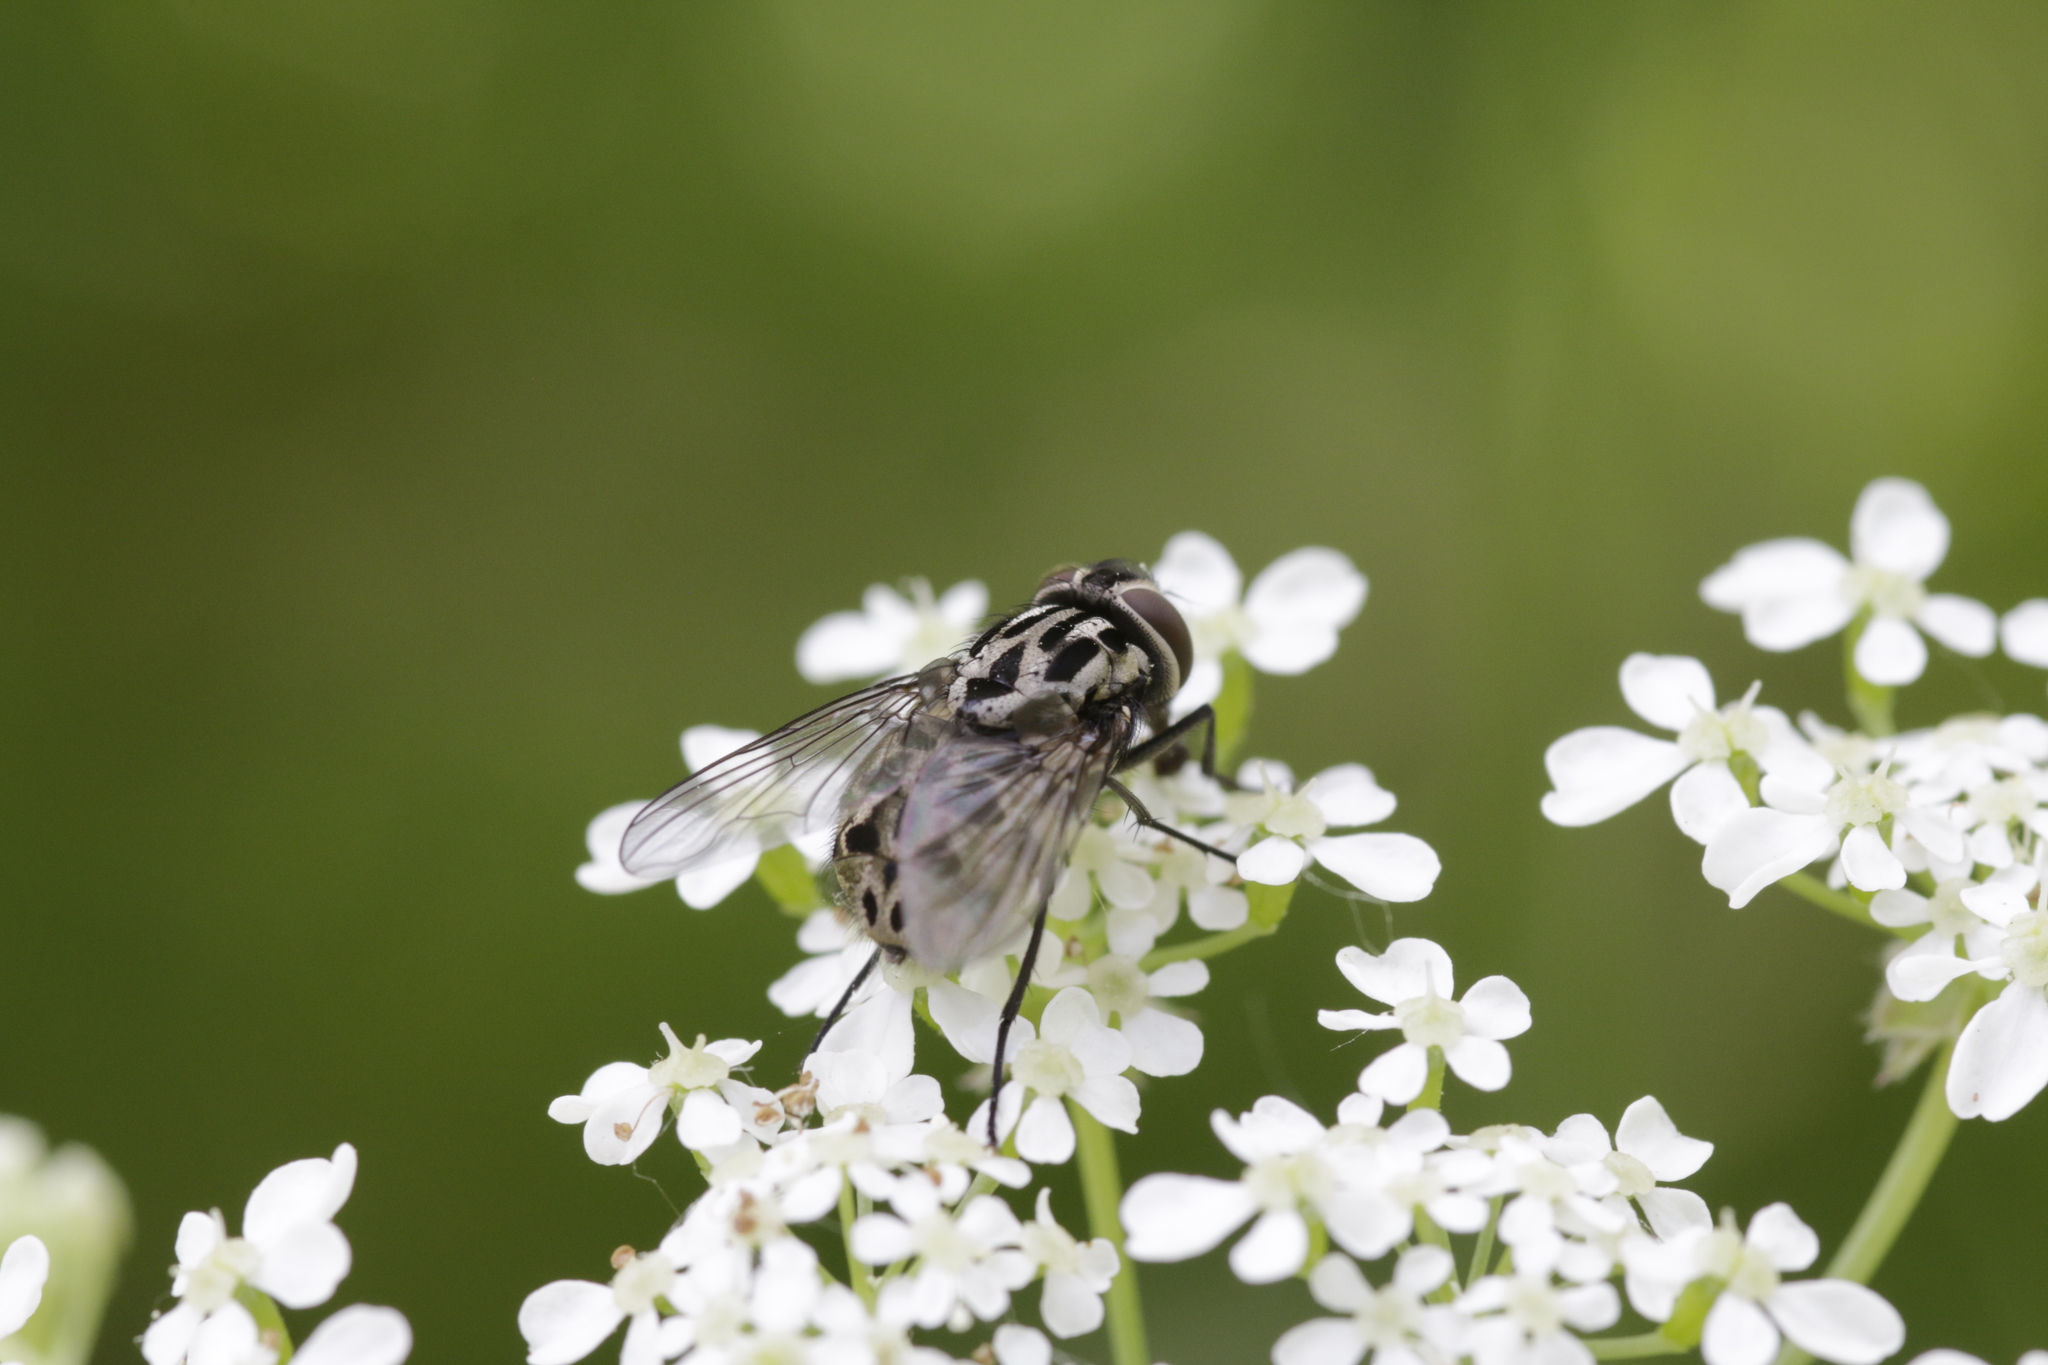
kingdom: Animalia
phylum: Arthropoda
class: Insecta
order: Diptera
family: Muscidae
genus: Graphomya
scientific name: Graphomya maculata
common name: Muscid fly
